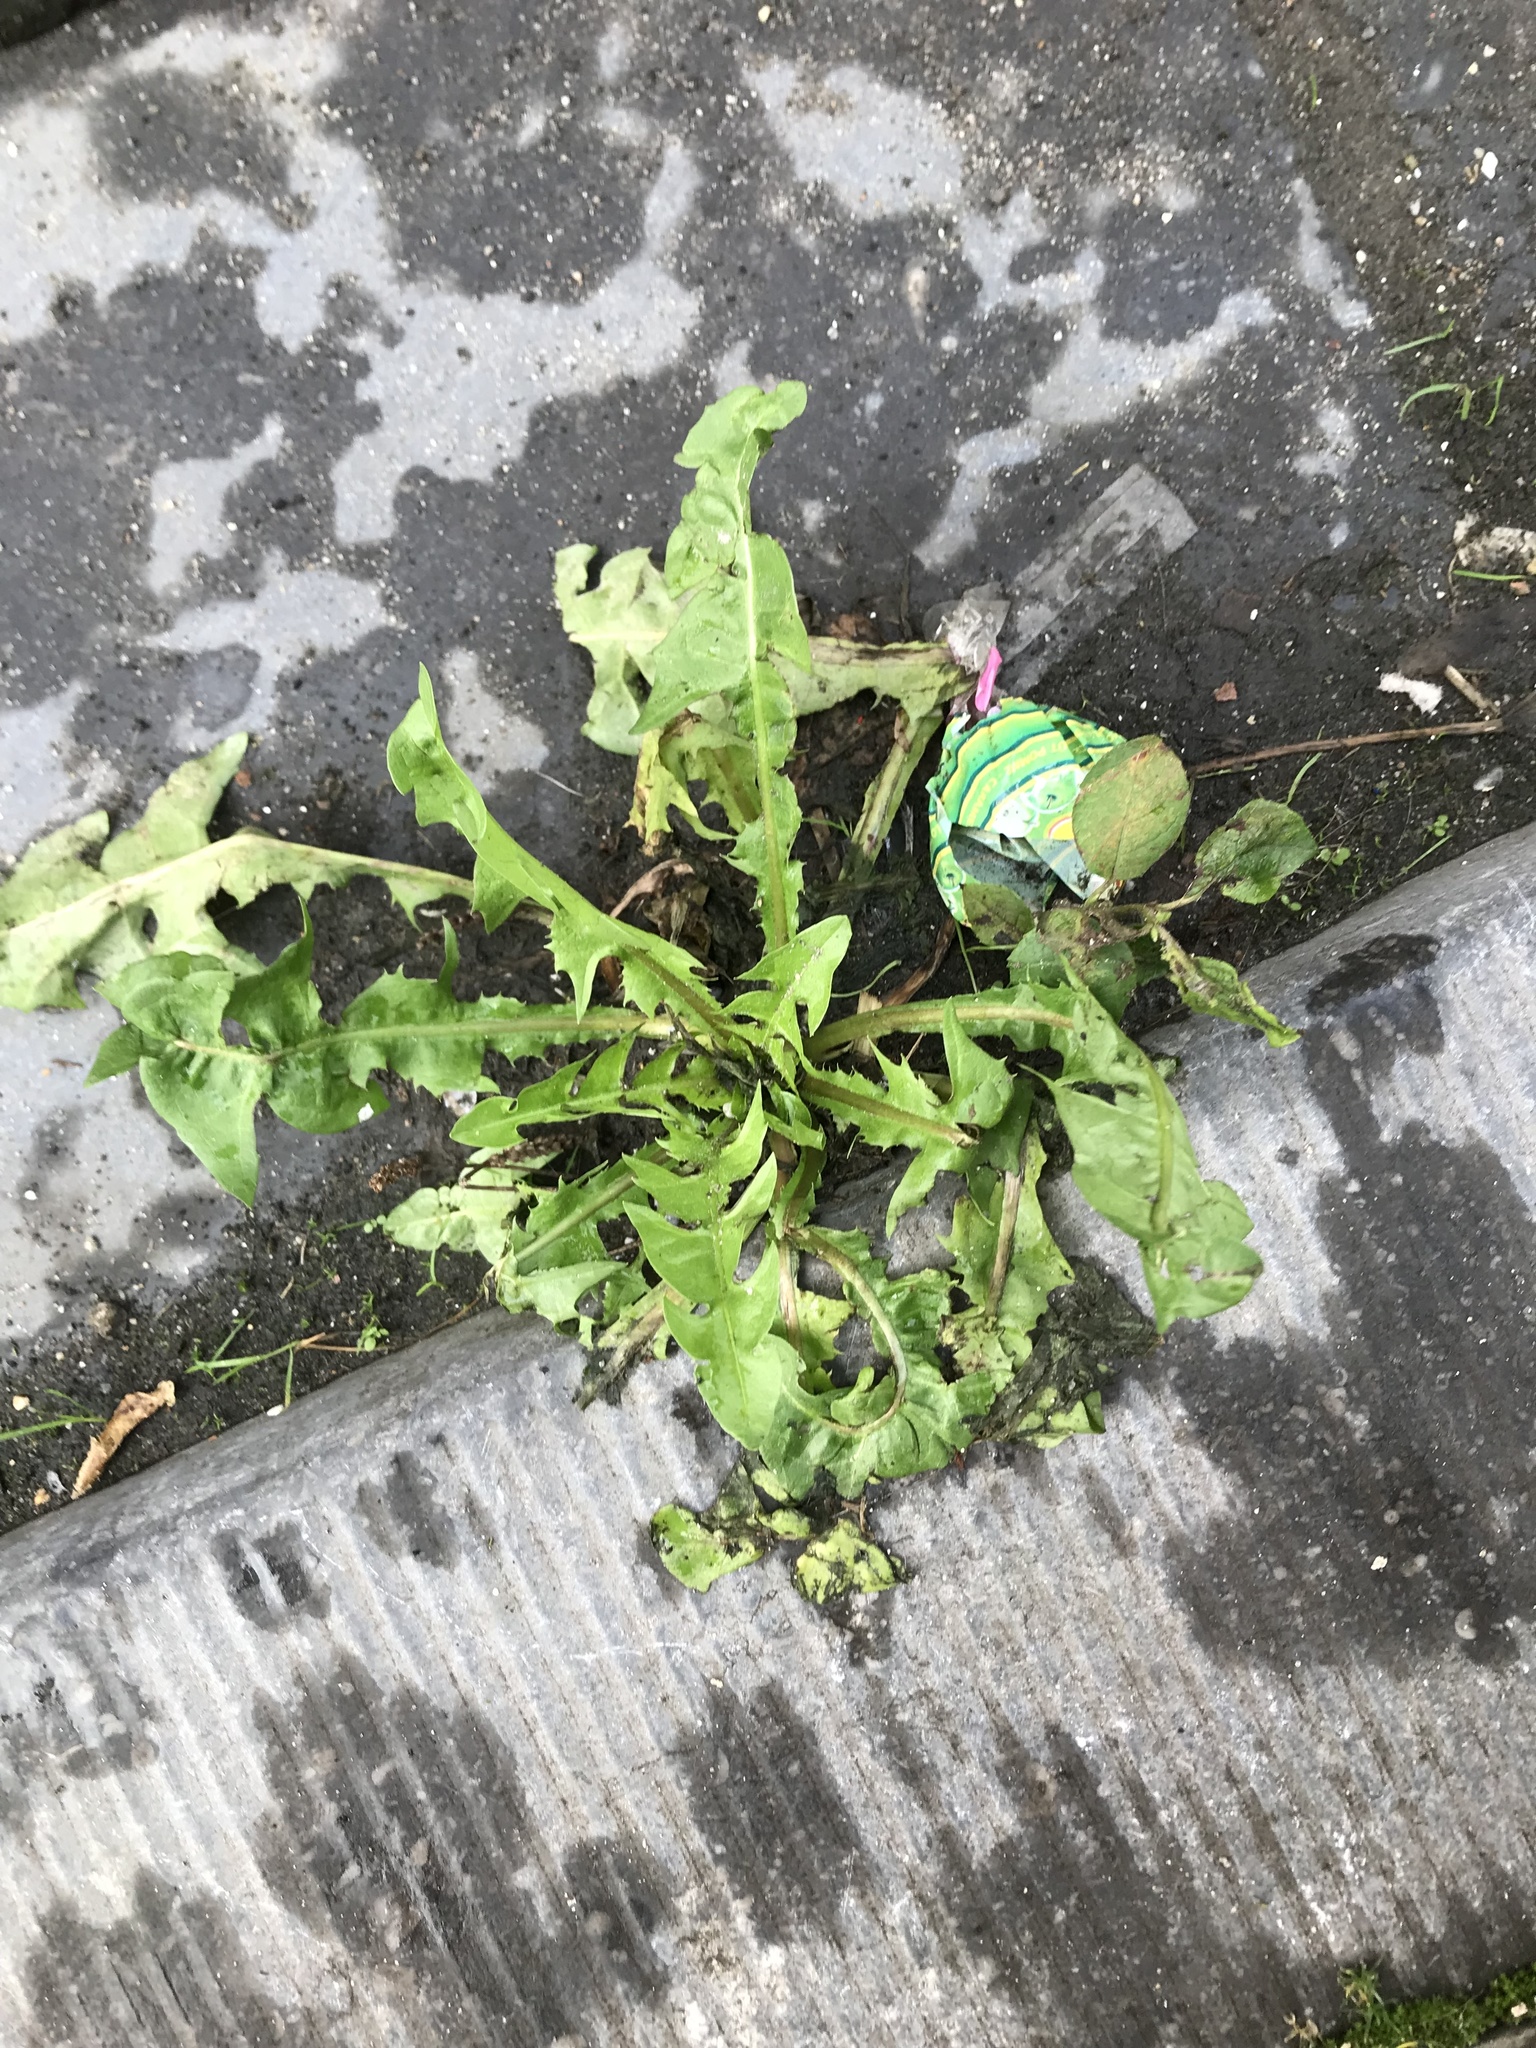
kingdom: Plantae
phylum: Tracheophyta
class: Magnoliopsida
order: Asterales
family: Asteraceae
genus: Taraxacum
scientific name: Taraxacum officinale
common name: Common dandelion
